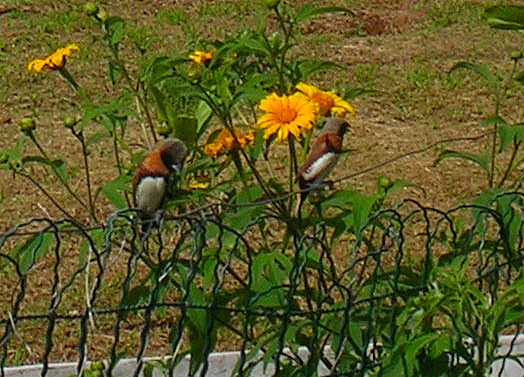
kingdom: Animalia
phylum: Chordata
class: Aves
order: Passeriformes
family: Estrildidae
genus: Lonchura
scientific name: Lonchura castaneothorax
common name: Chestnut-breasted mannikin
